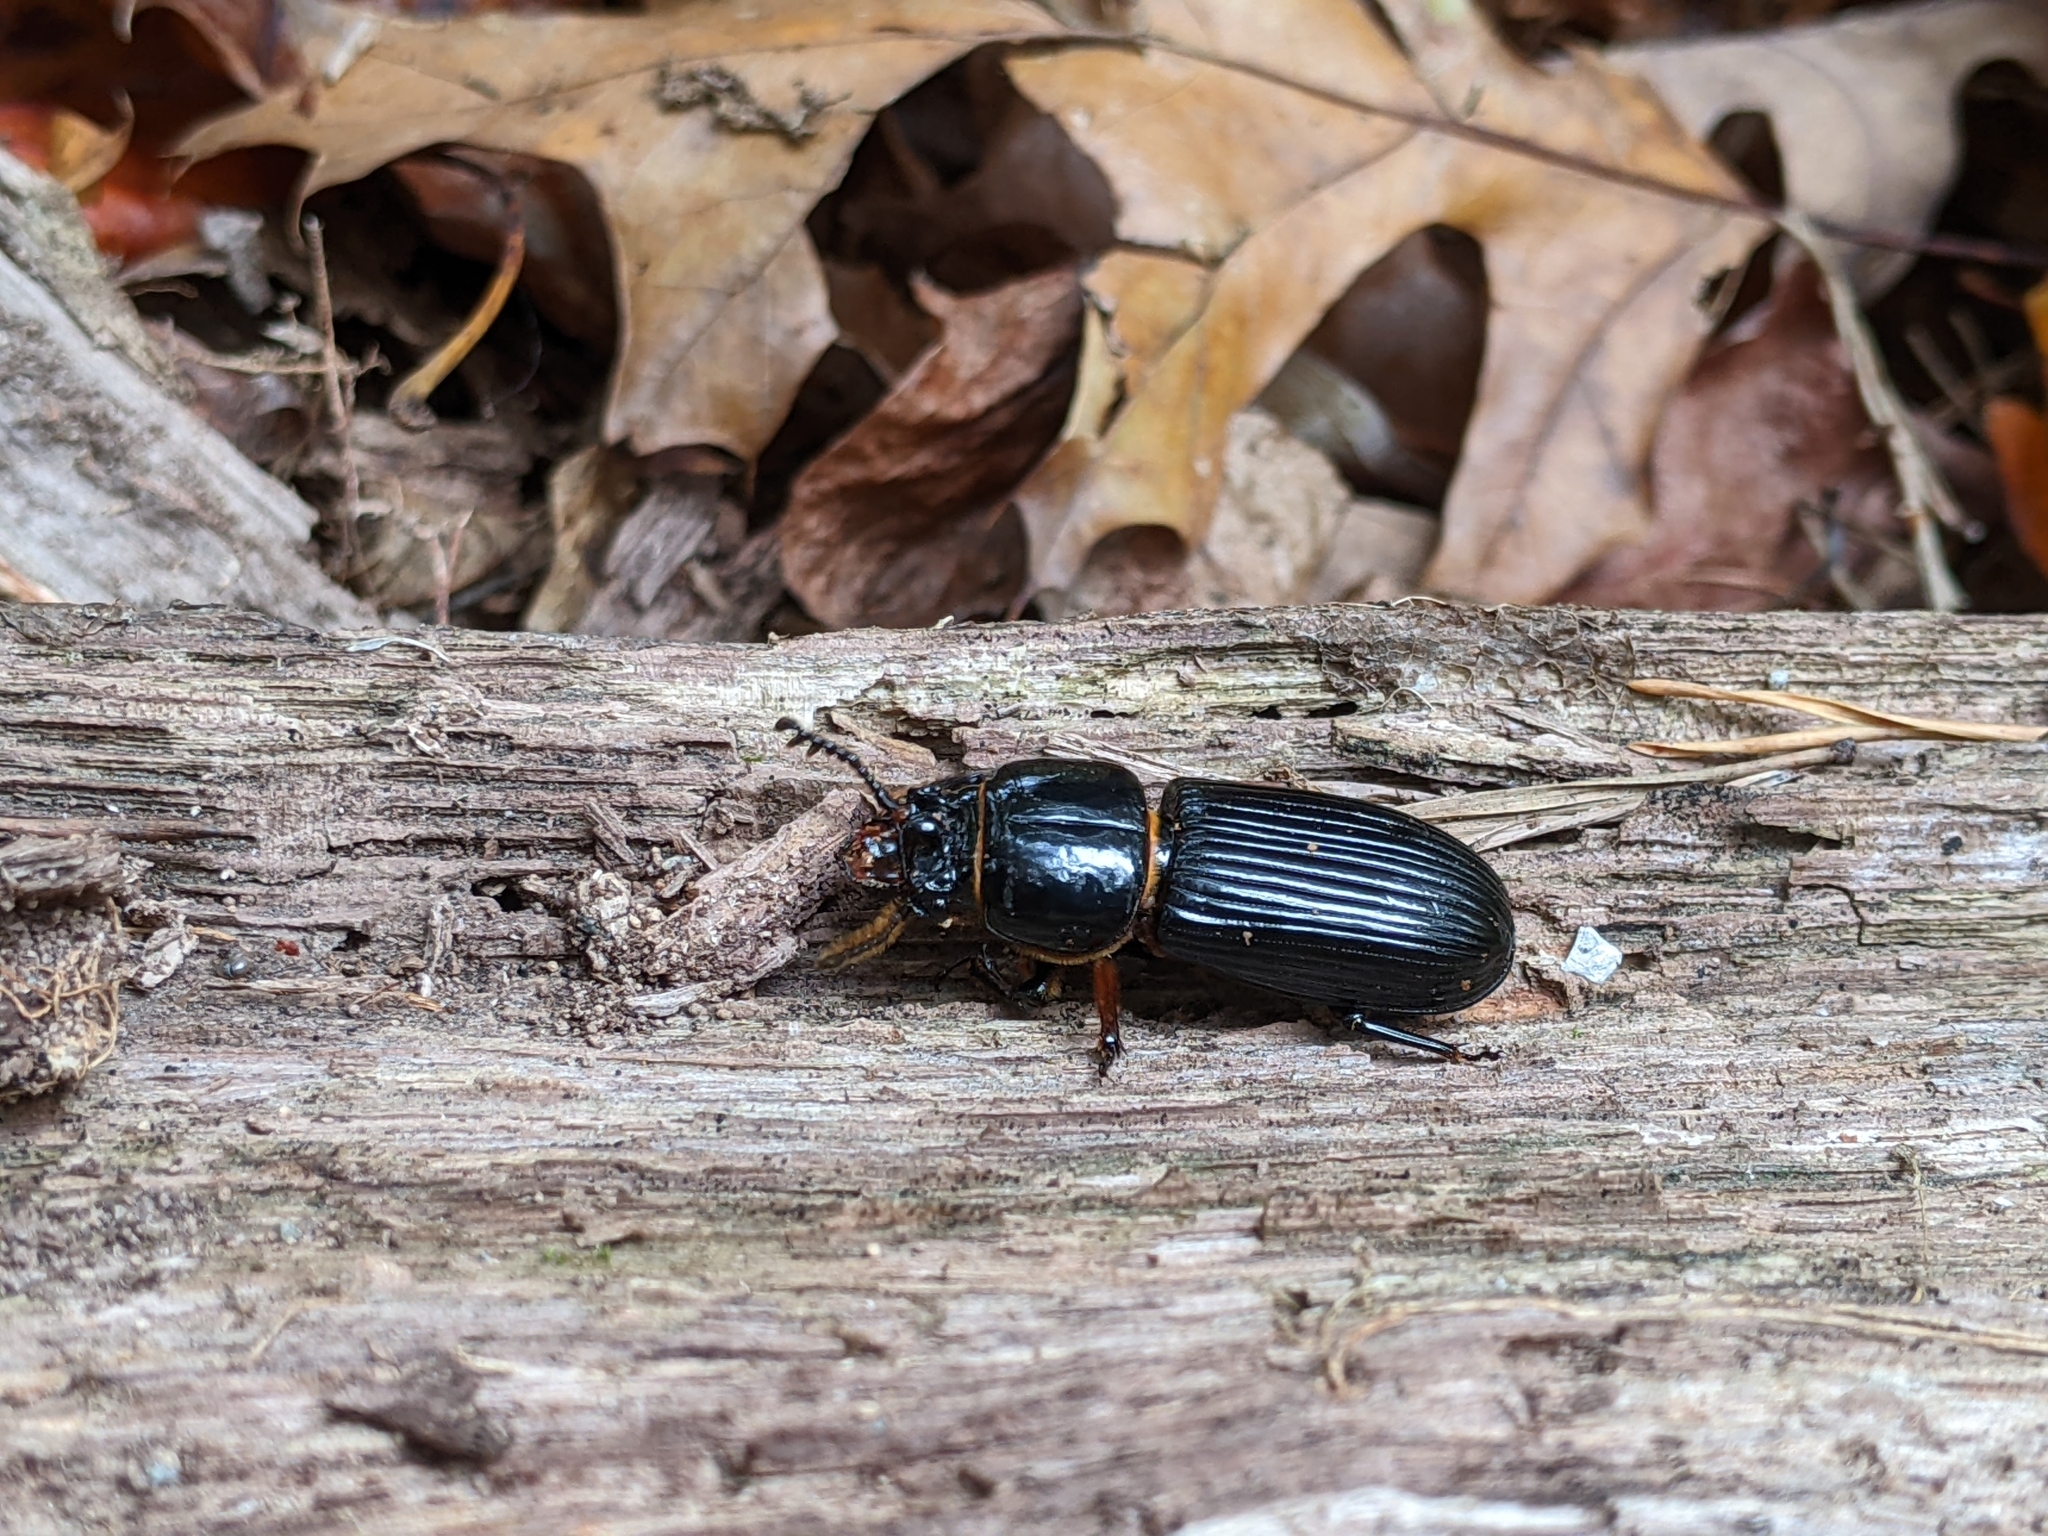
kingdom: Animalia
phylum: Arthropoda
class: Insecta
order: Coleoptera
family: Passalidae
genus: Odontotaenius
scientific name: Odontotaenius disjunctus
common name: Patent leather beetle
